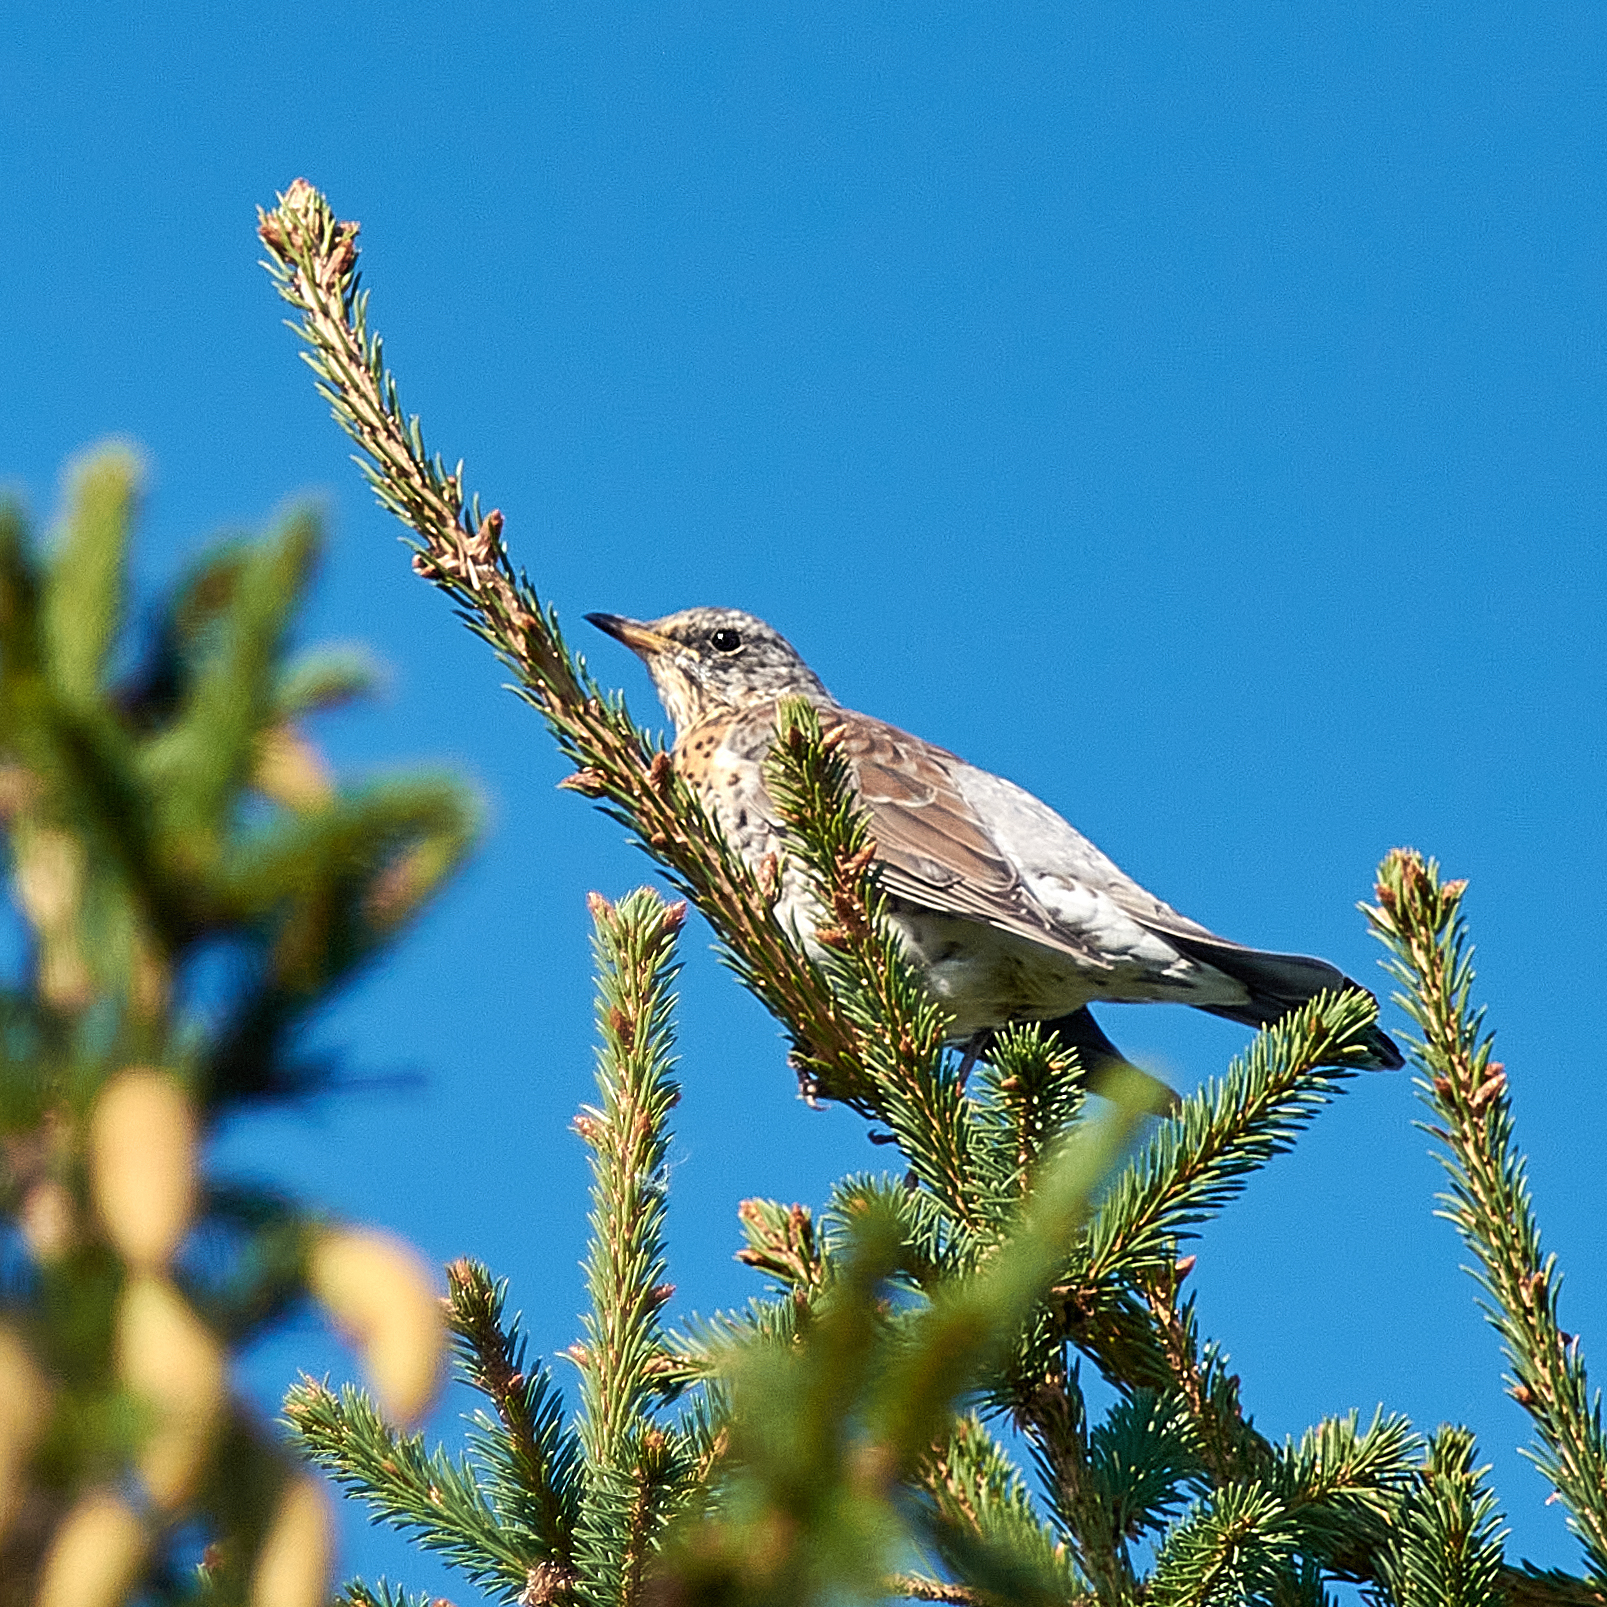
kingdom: Animalia
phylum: Chordata
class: Aves
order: Passeriformes
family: Turdidae
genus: Turdus
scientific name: Turdus pilaris
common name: Fieldfare
